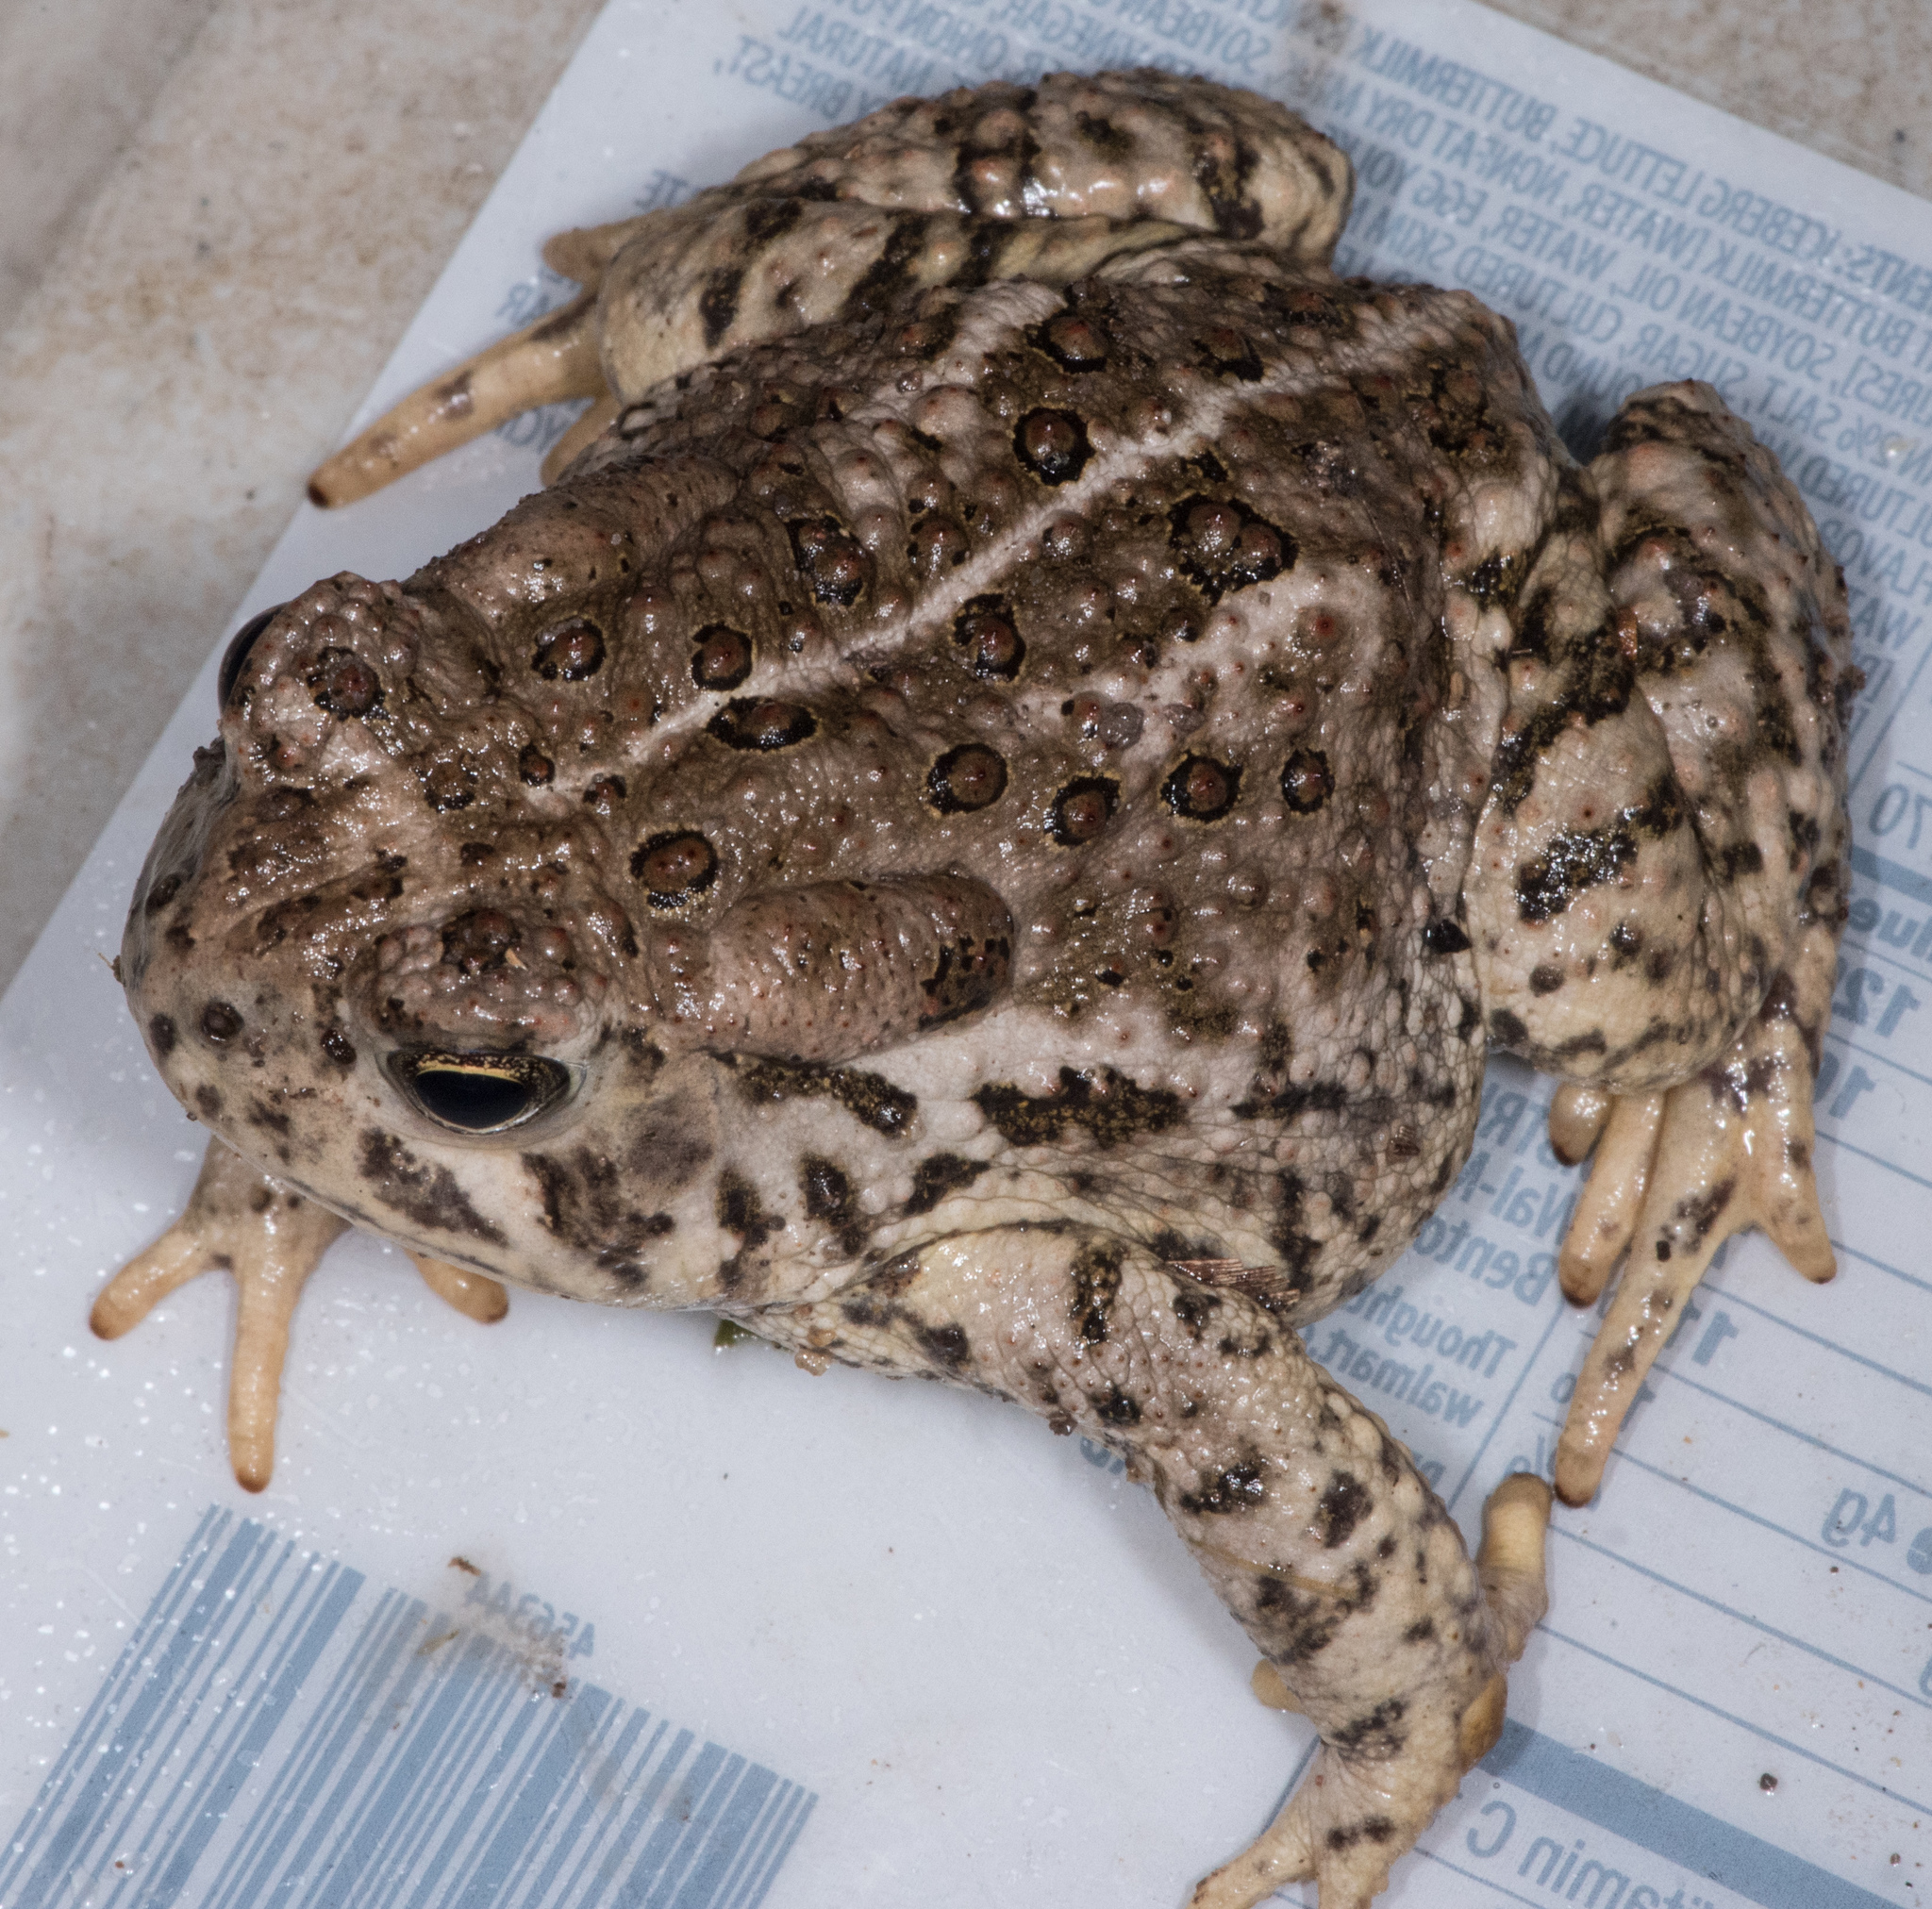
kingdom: Animalia
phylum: Chordata
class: Amphibia
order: Anura
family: Bufonidae
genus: Anaxyrus
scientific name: Anaxyrus woodhousii
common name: Woodhouse's toad
